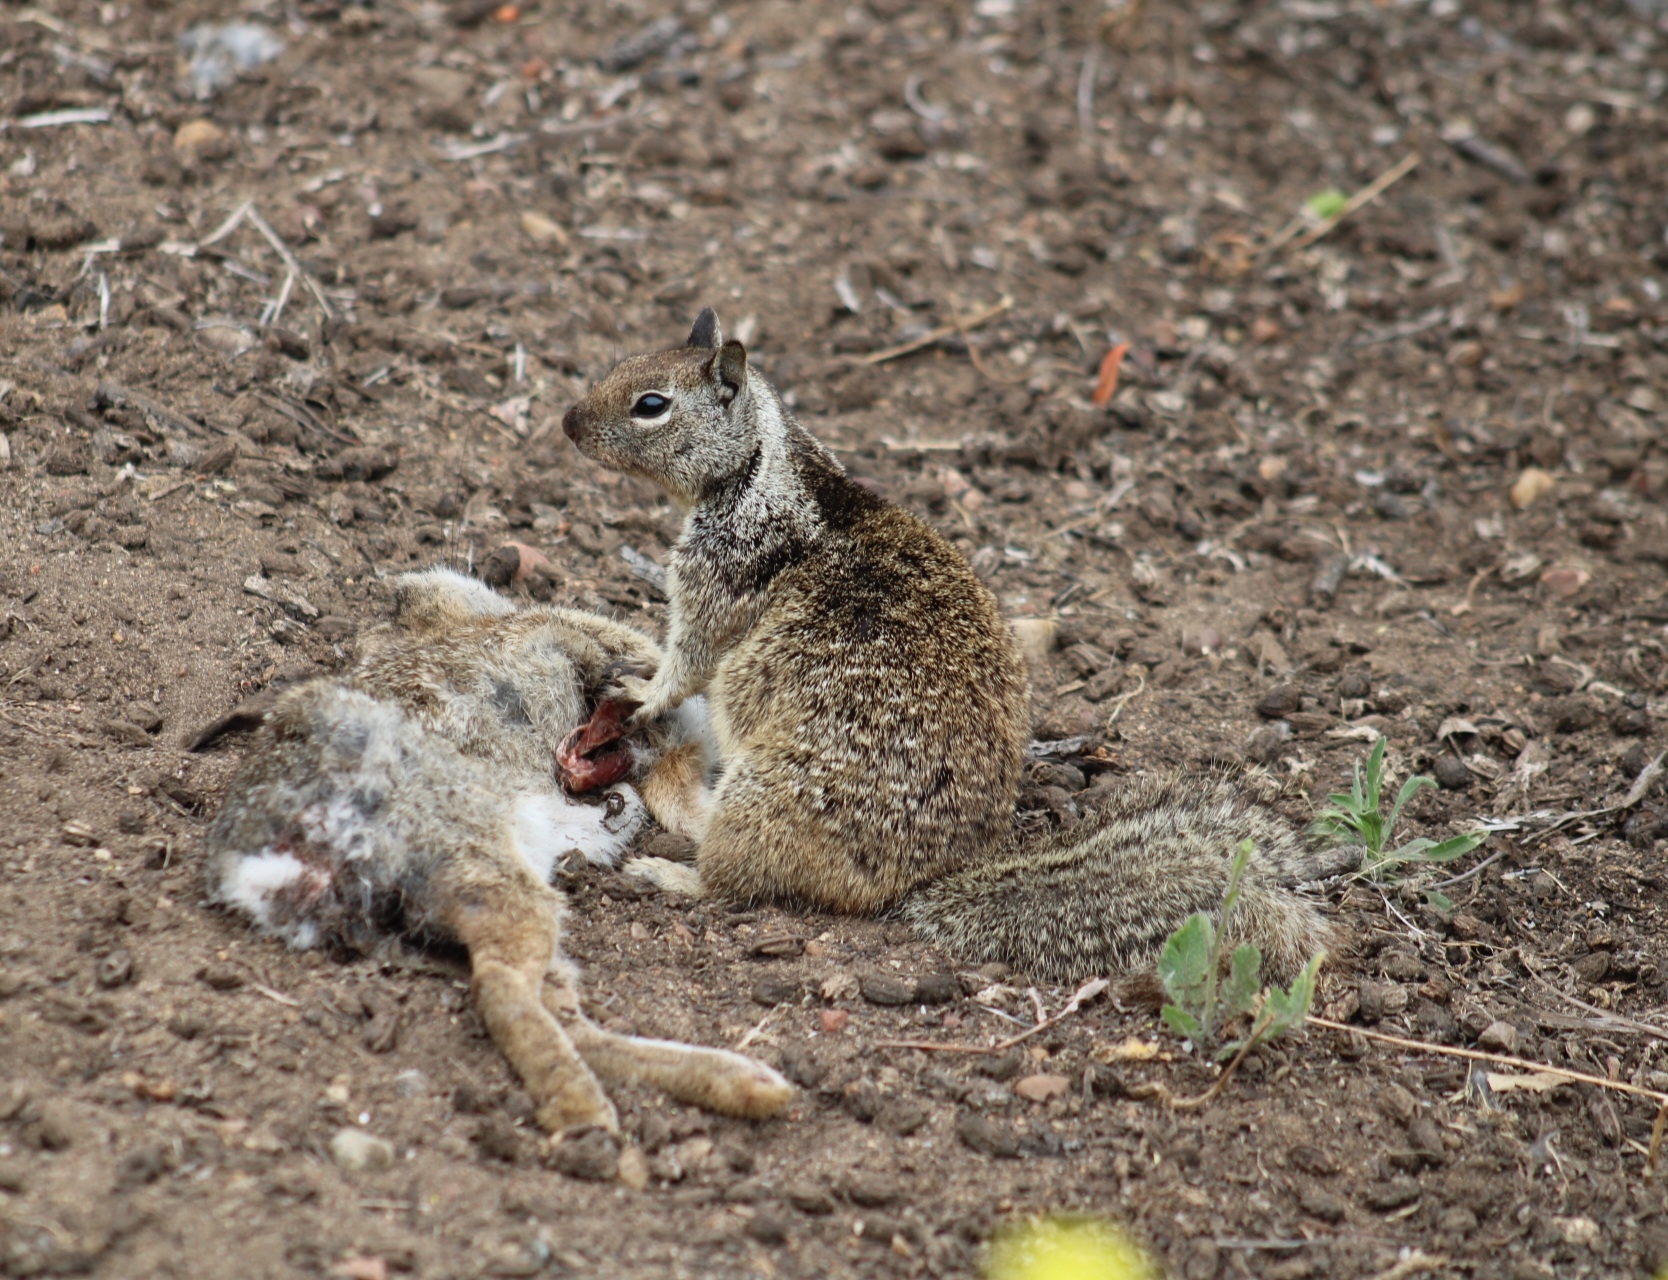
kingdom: Animalia
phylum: Chordata
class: Mammalia
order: Rodentia
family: Sciuridae
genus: Otospermophilus
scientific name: Otospermophilus beecheyi
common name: California ground squirrel
